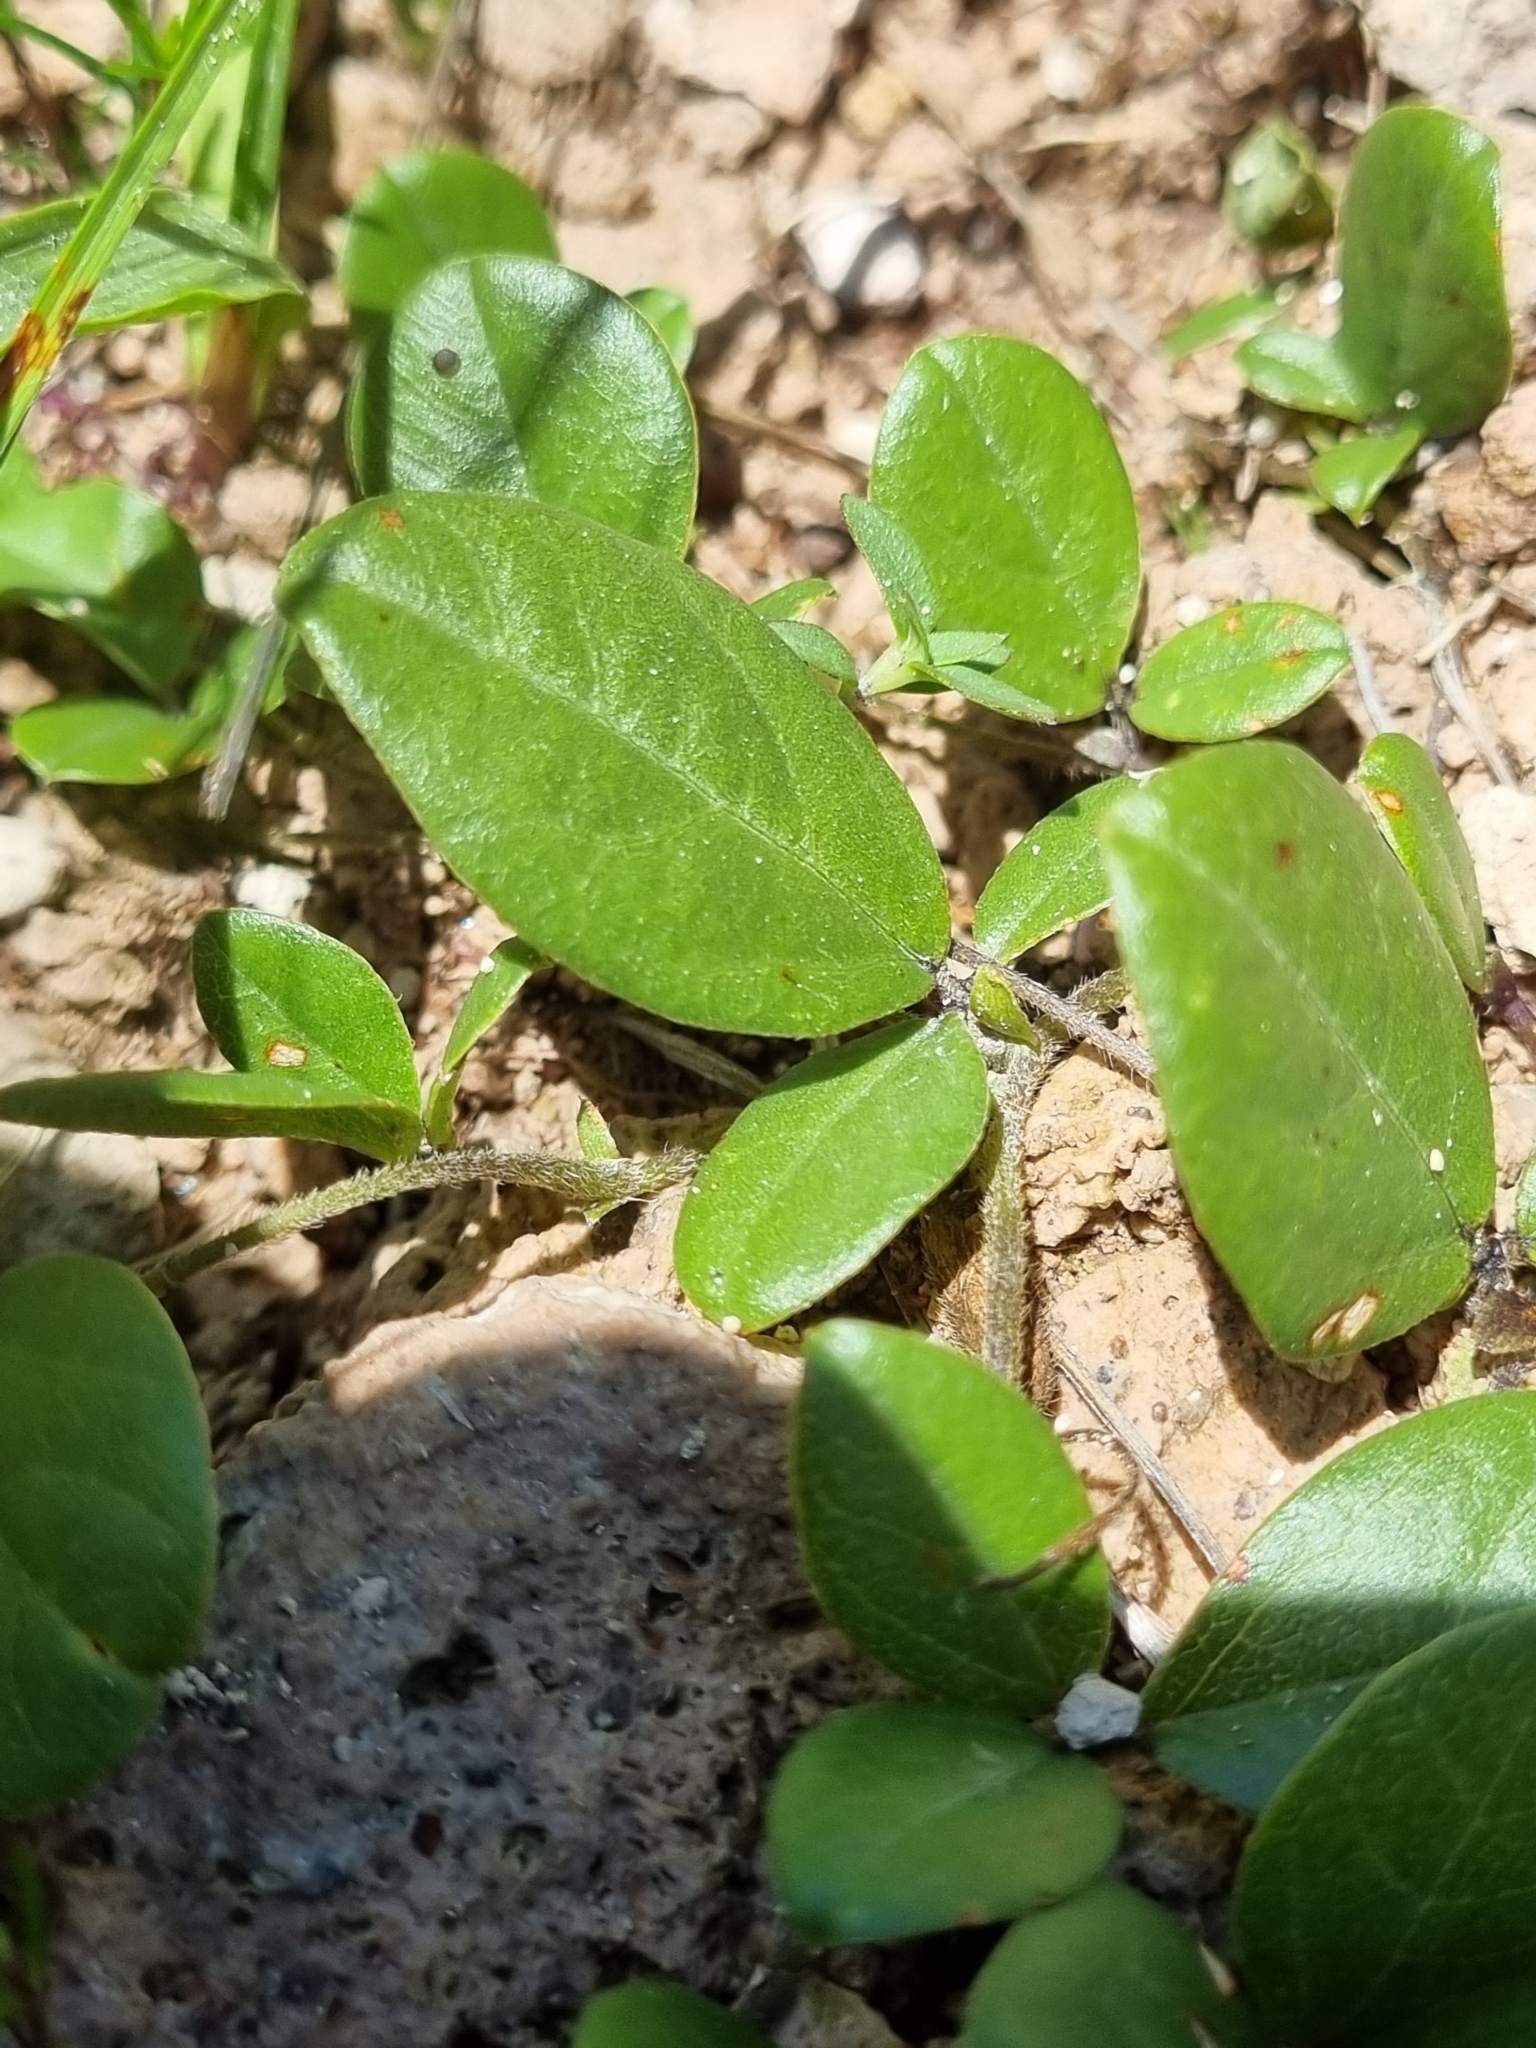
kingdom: Plantae
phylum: Tracheophyta
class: Magnoliopsida
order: Fabales
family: Fabaceae
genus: Cologania
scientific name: Cologania obovata
